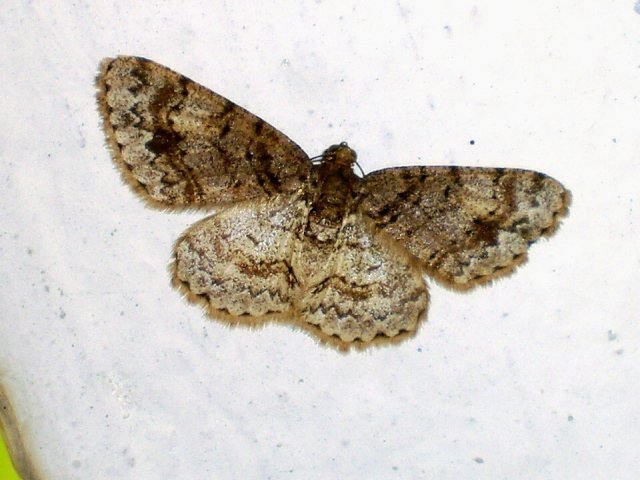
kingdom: Animalia
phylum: Arthropoda
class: Insecta
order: Lepidoptera
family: Geometridae
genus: Myrioblephara
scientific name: Myrioblephara simplaria
